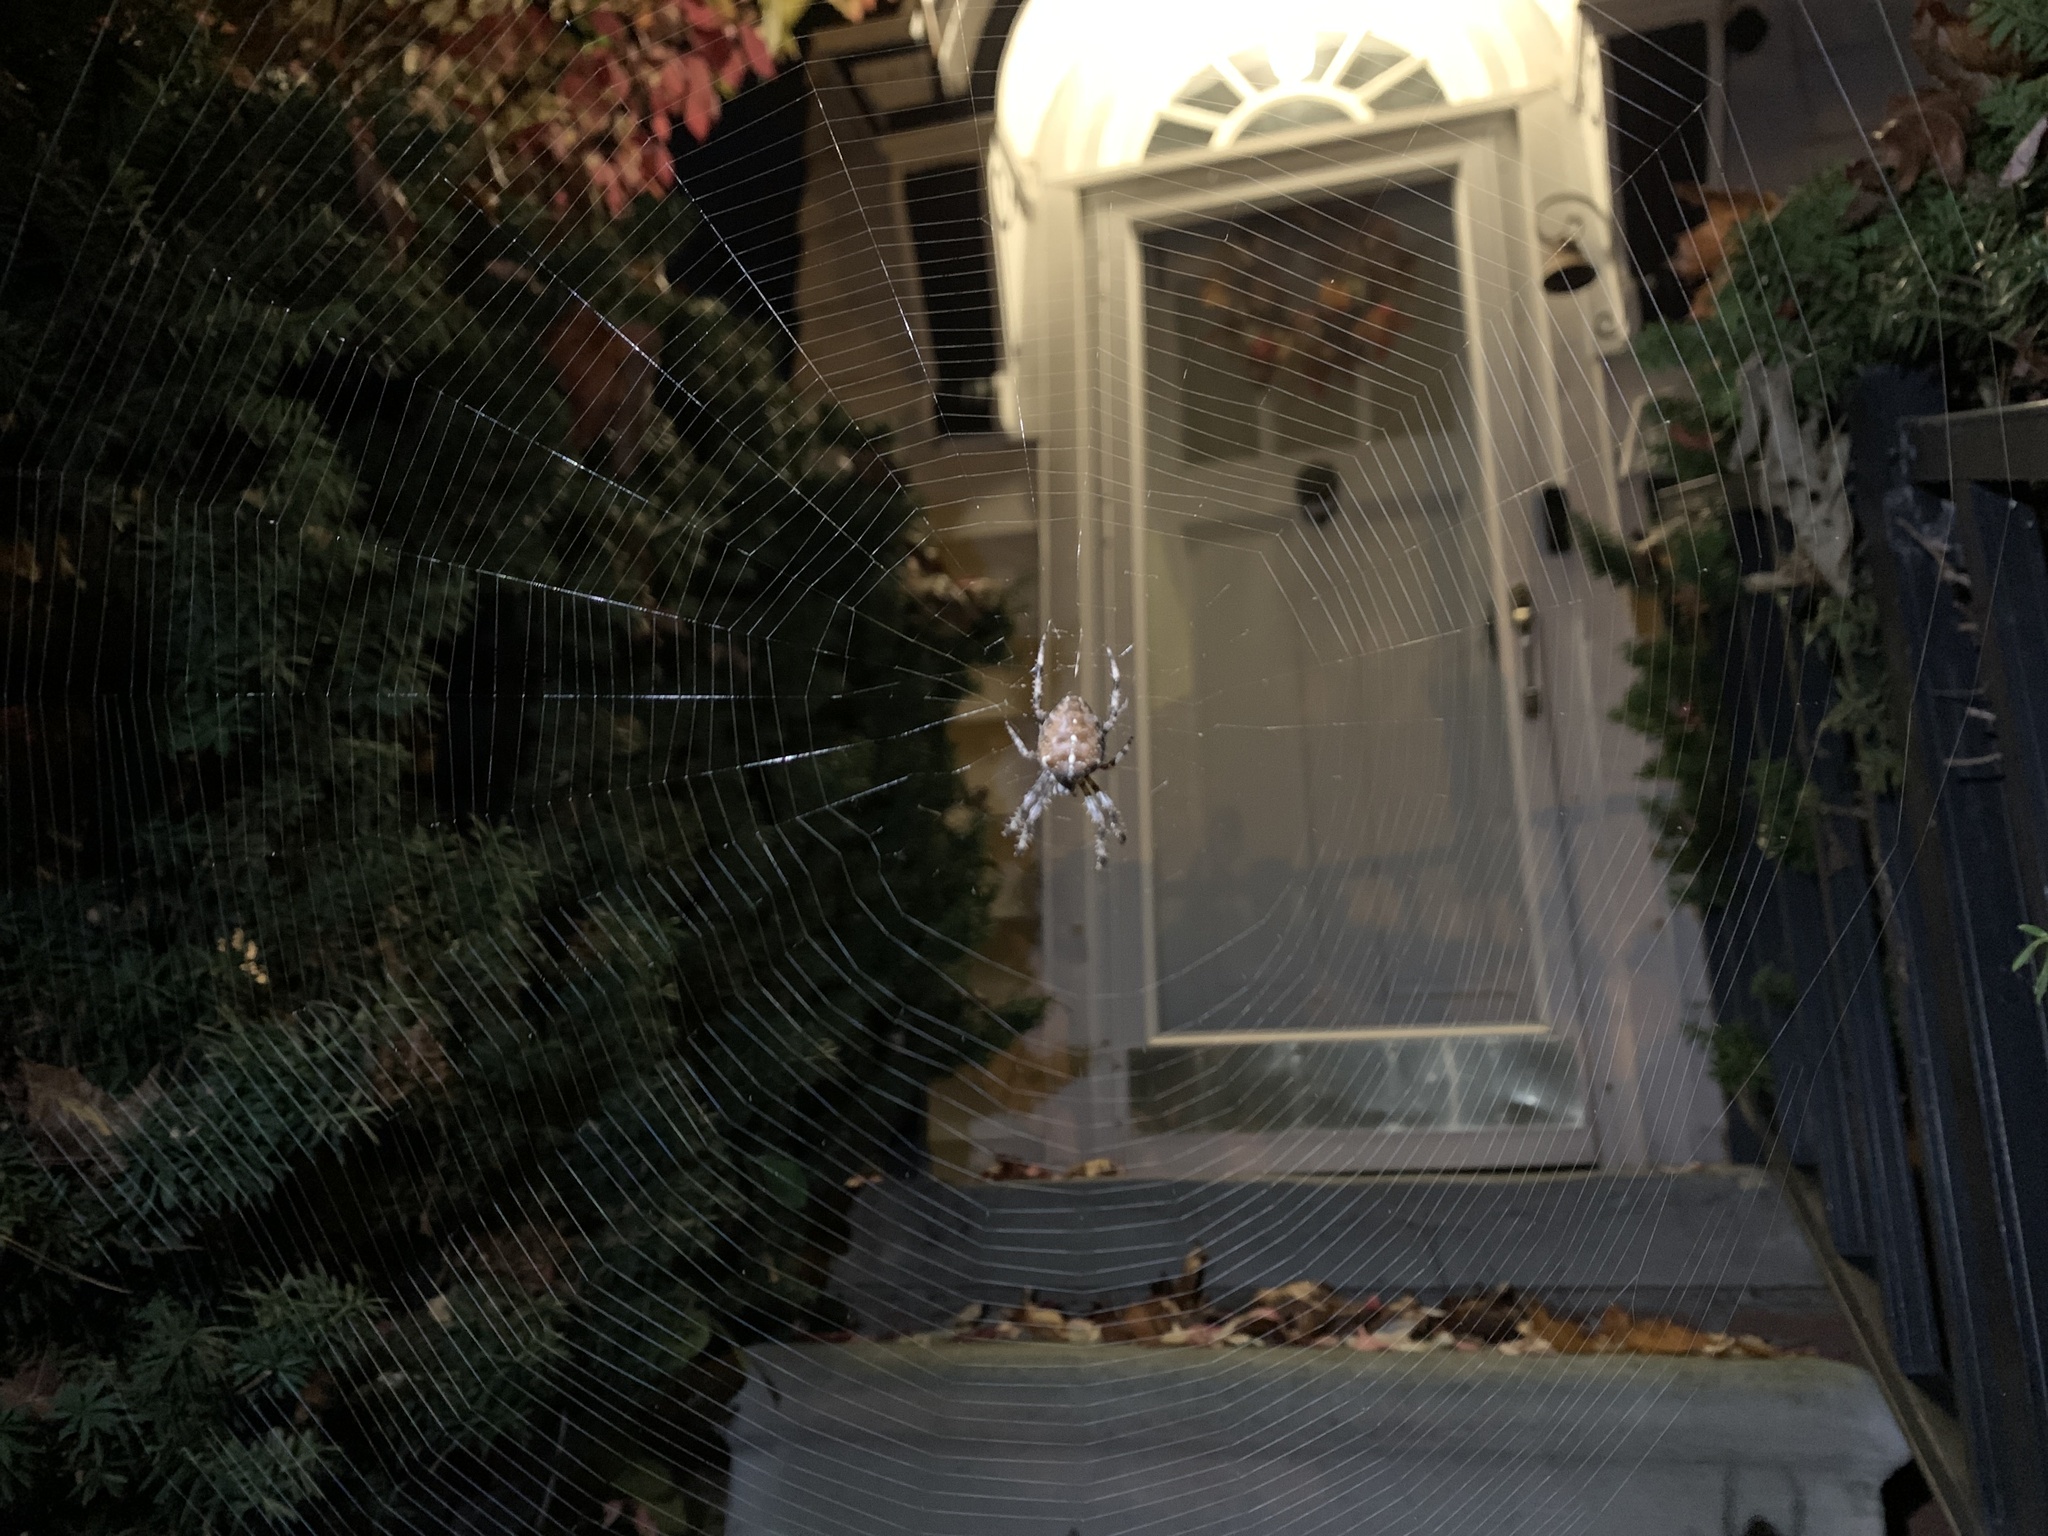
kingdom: Animalia
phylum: Arthropoda
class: Arachnida
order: Araneae
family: Araneidae
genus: Araneus
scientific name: Araneus diadematus
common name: Cross orbweaver
